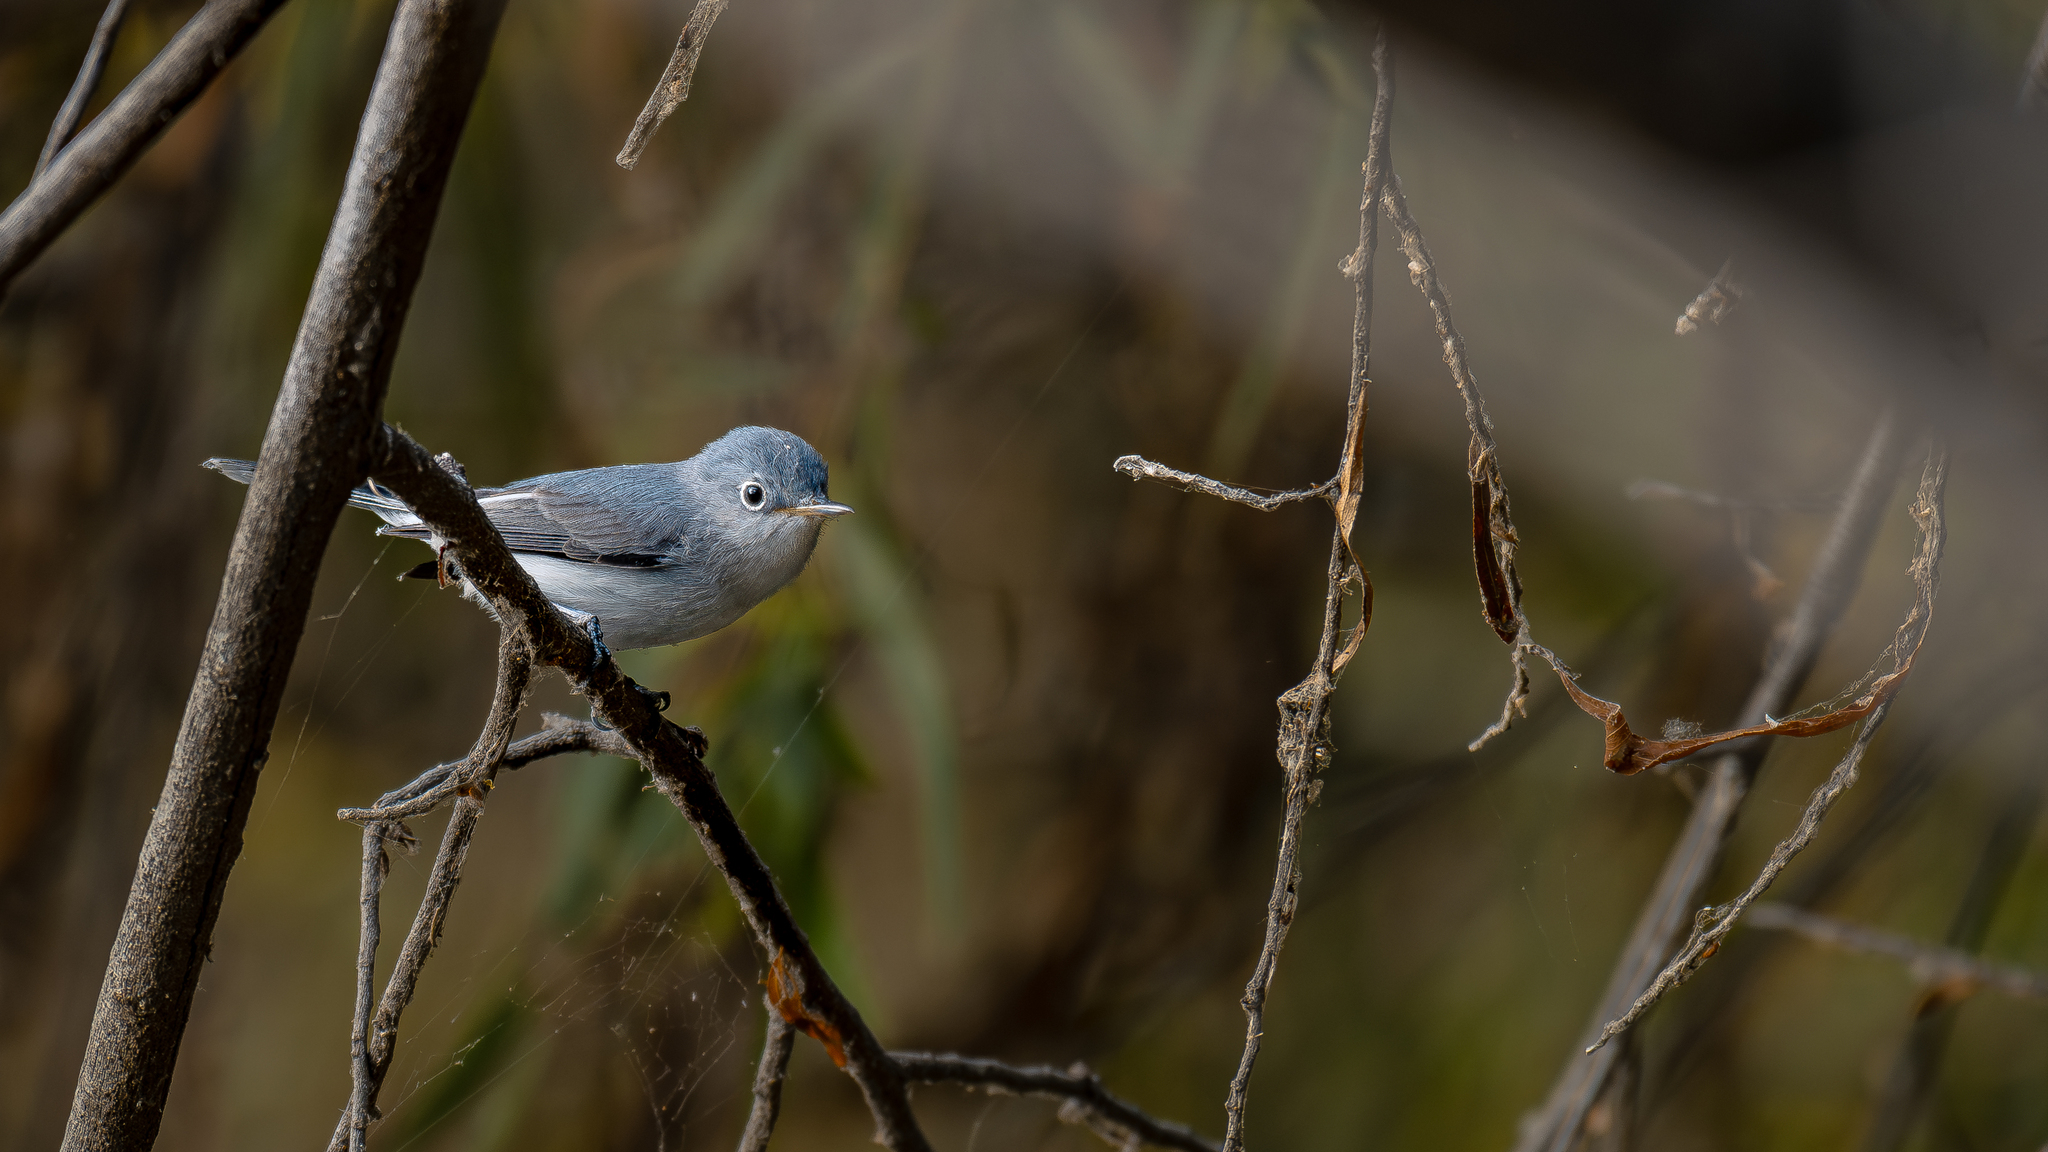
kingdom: Animalia
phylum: Chordata
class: Aves
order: Passeriformes
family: Polioptilidae
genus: Polioptila
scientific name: Polioptila caerulea
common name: Blue-gray gnatcatcher
